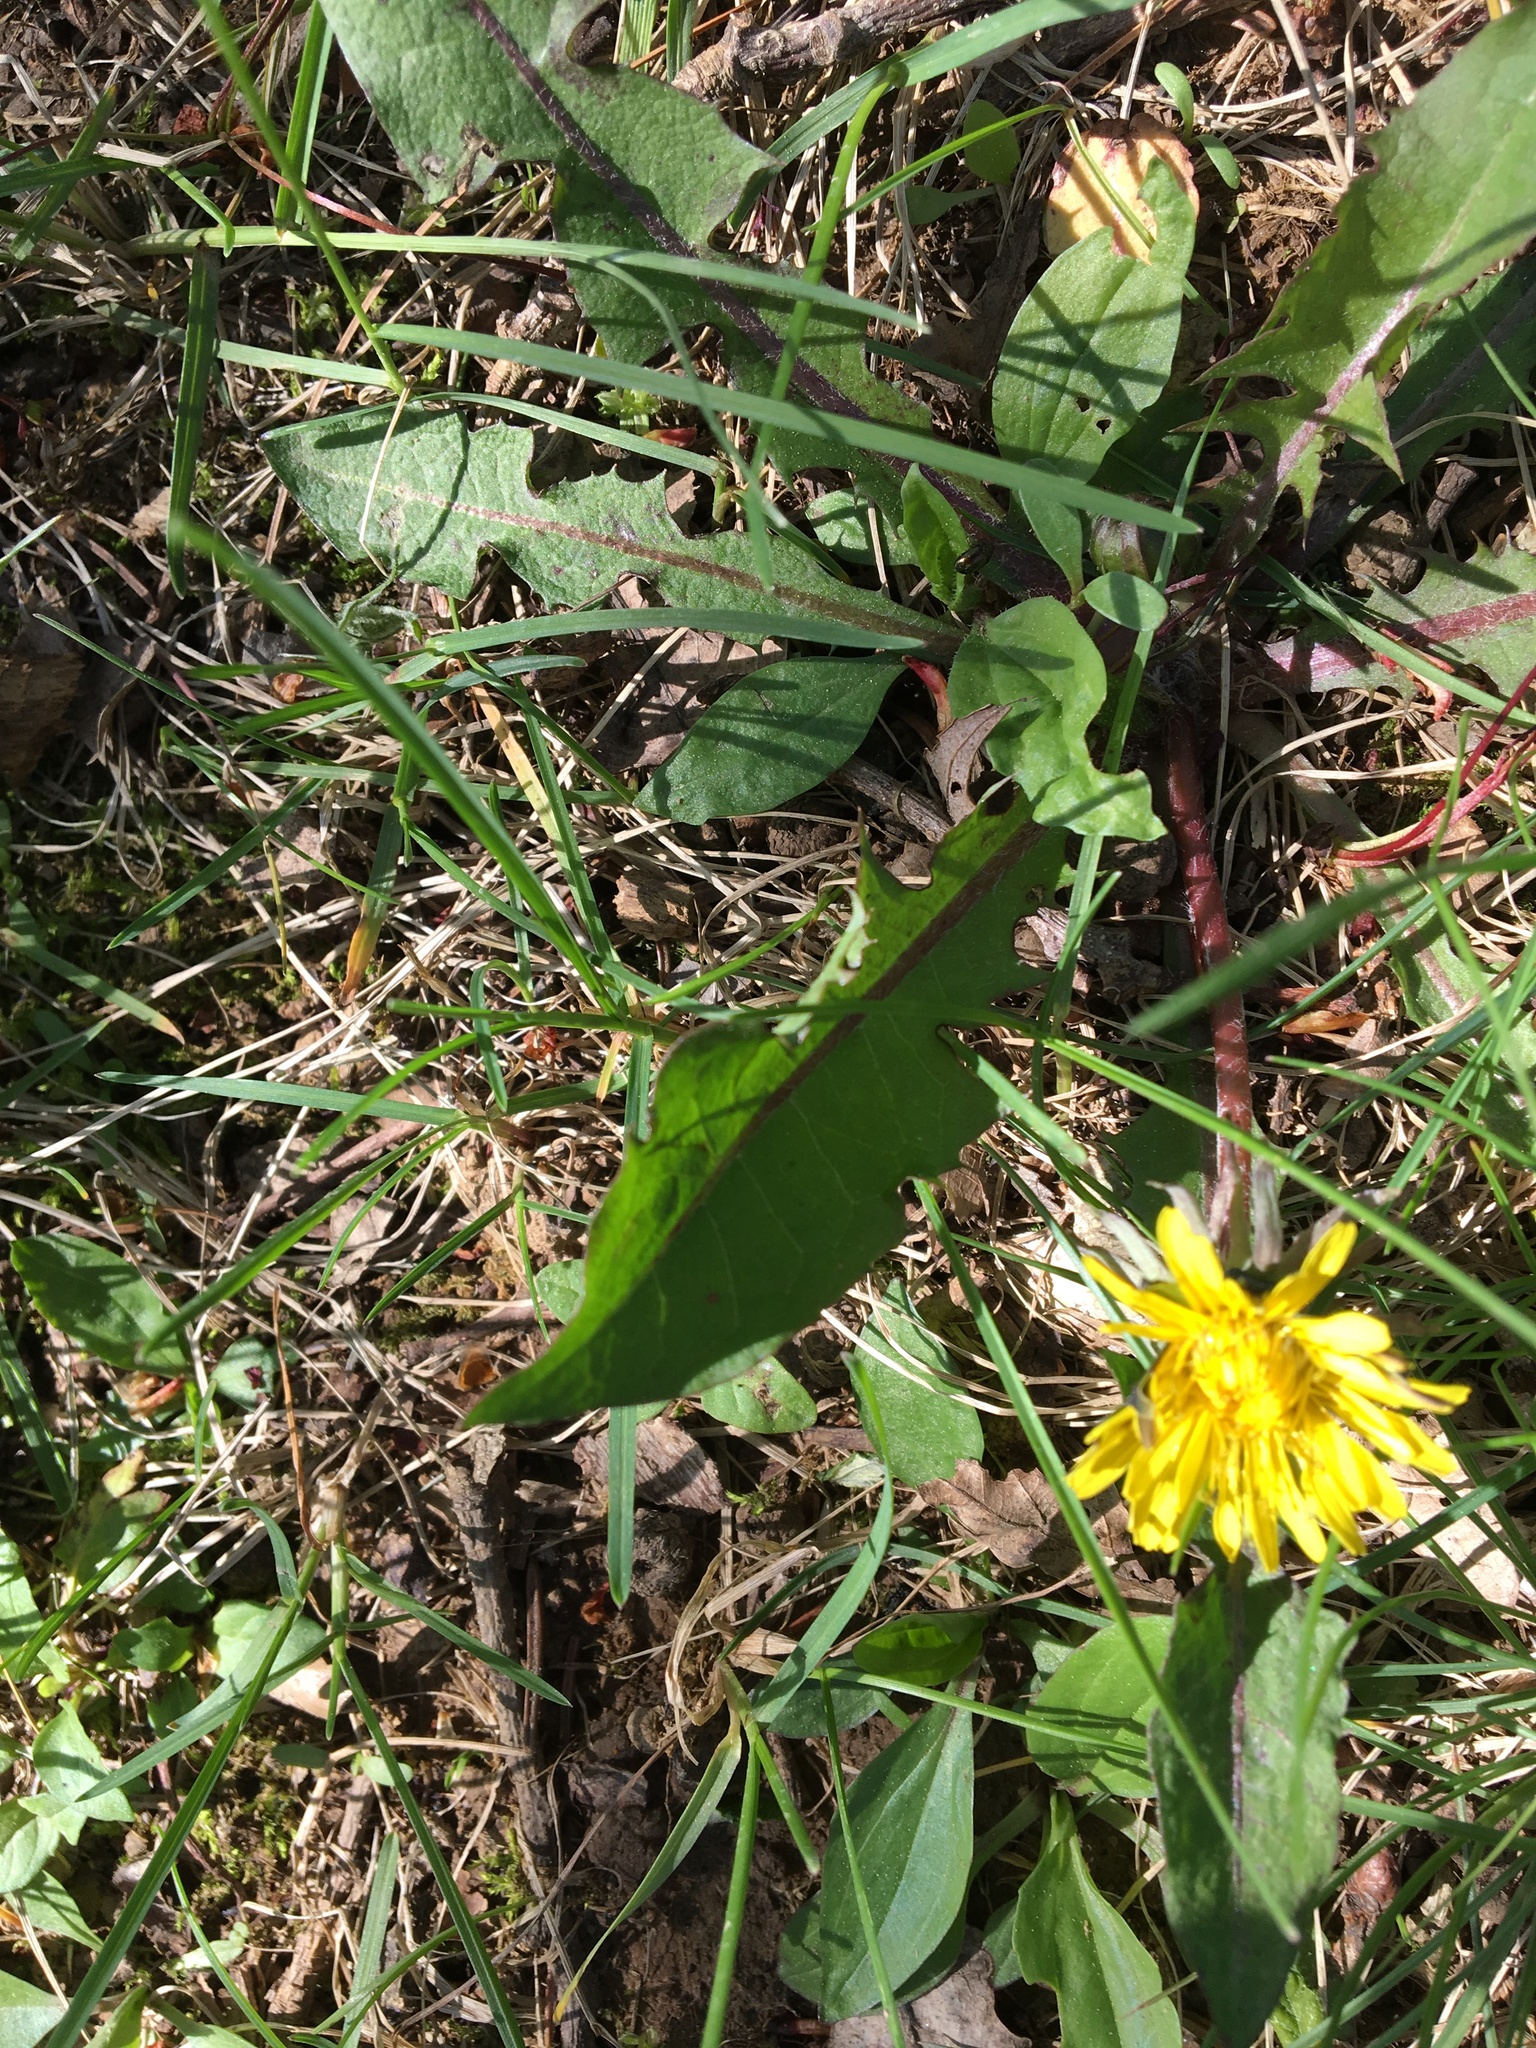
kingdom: Plantae
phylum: Tracheophyta
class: Magnoliopsida
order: Asterales
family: Asteraceae
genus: Taraxacum
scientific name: Taraxacum officinale
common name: Common dandelion
